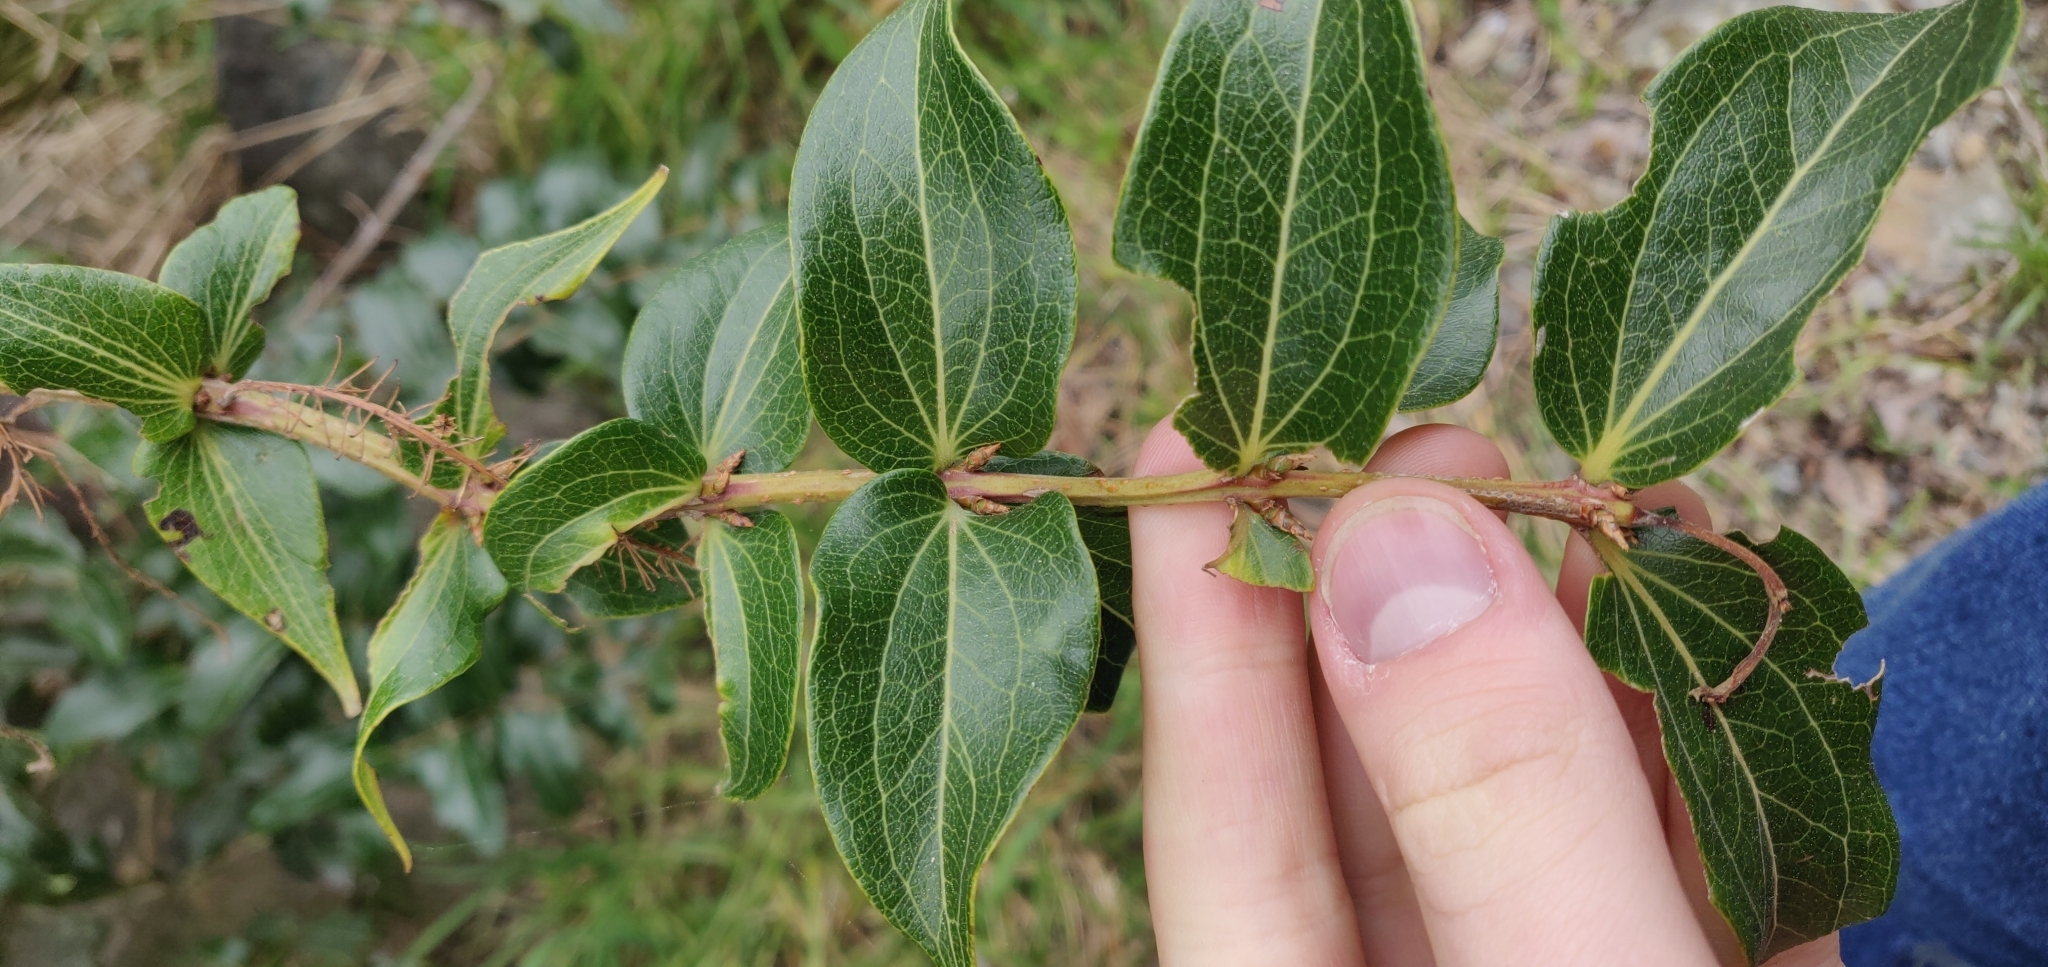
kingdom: Plantae
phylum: Tracheophyta
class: Magnoliopsida
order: Cucurbitales
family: Coriariaceae
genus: Coriaria
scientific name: Coriaria arborea
